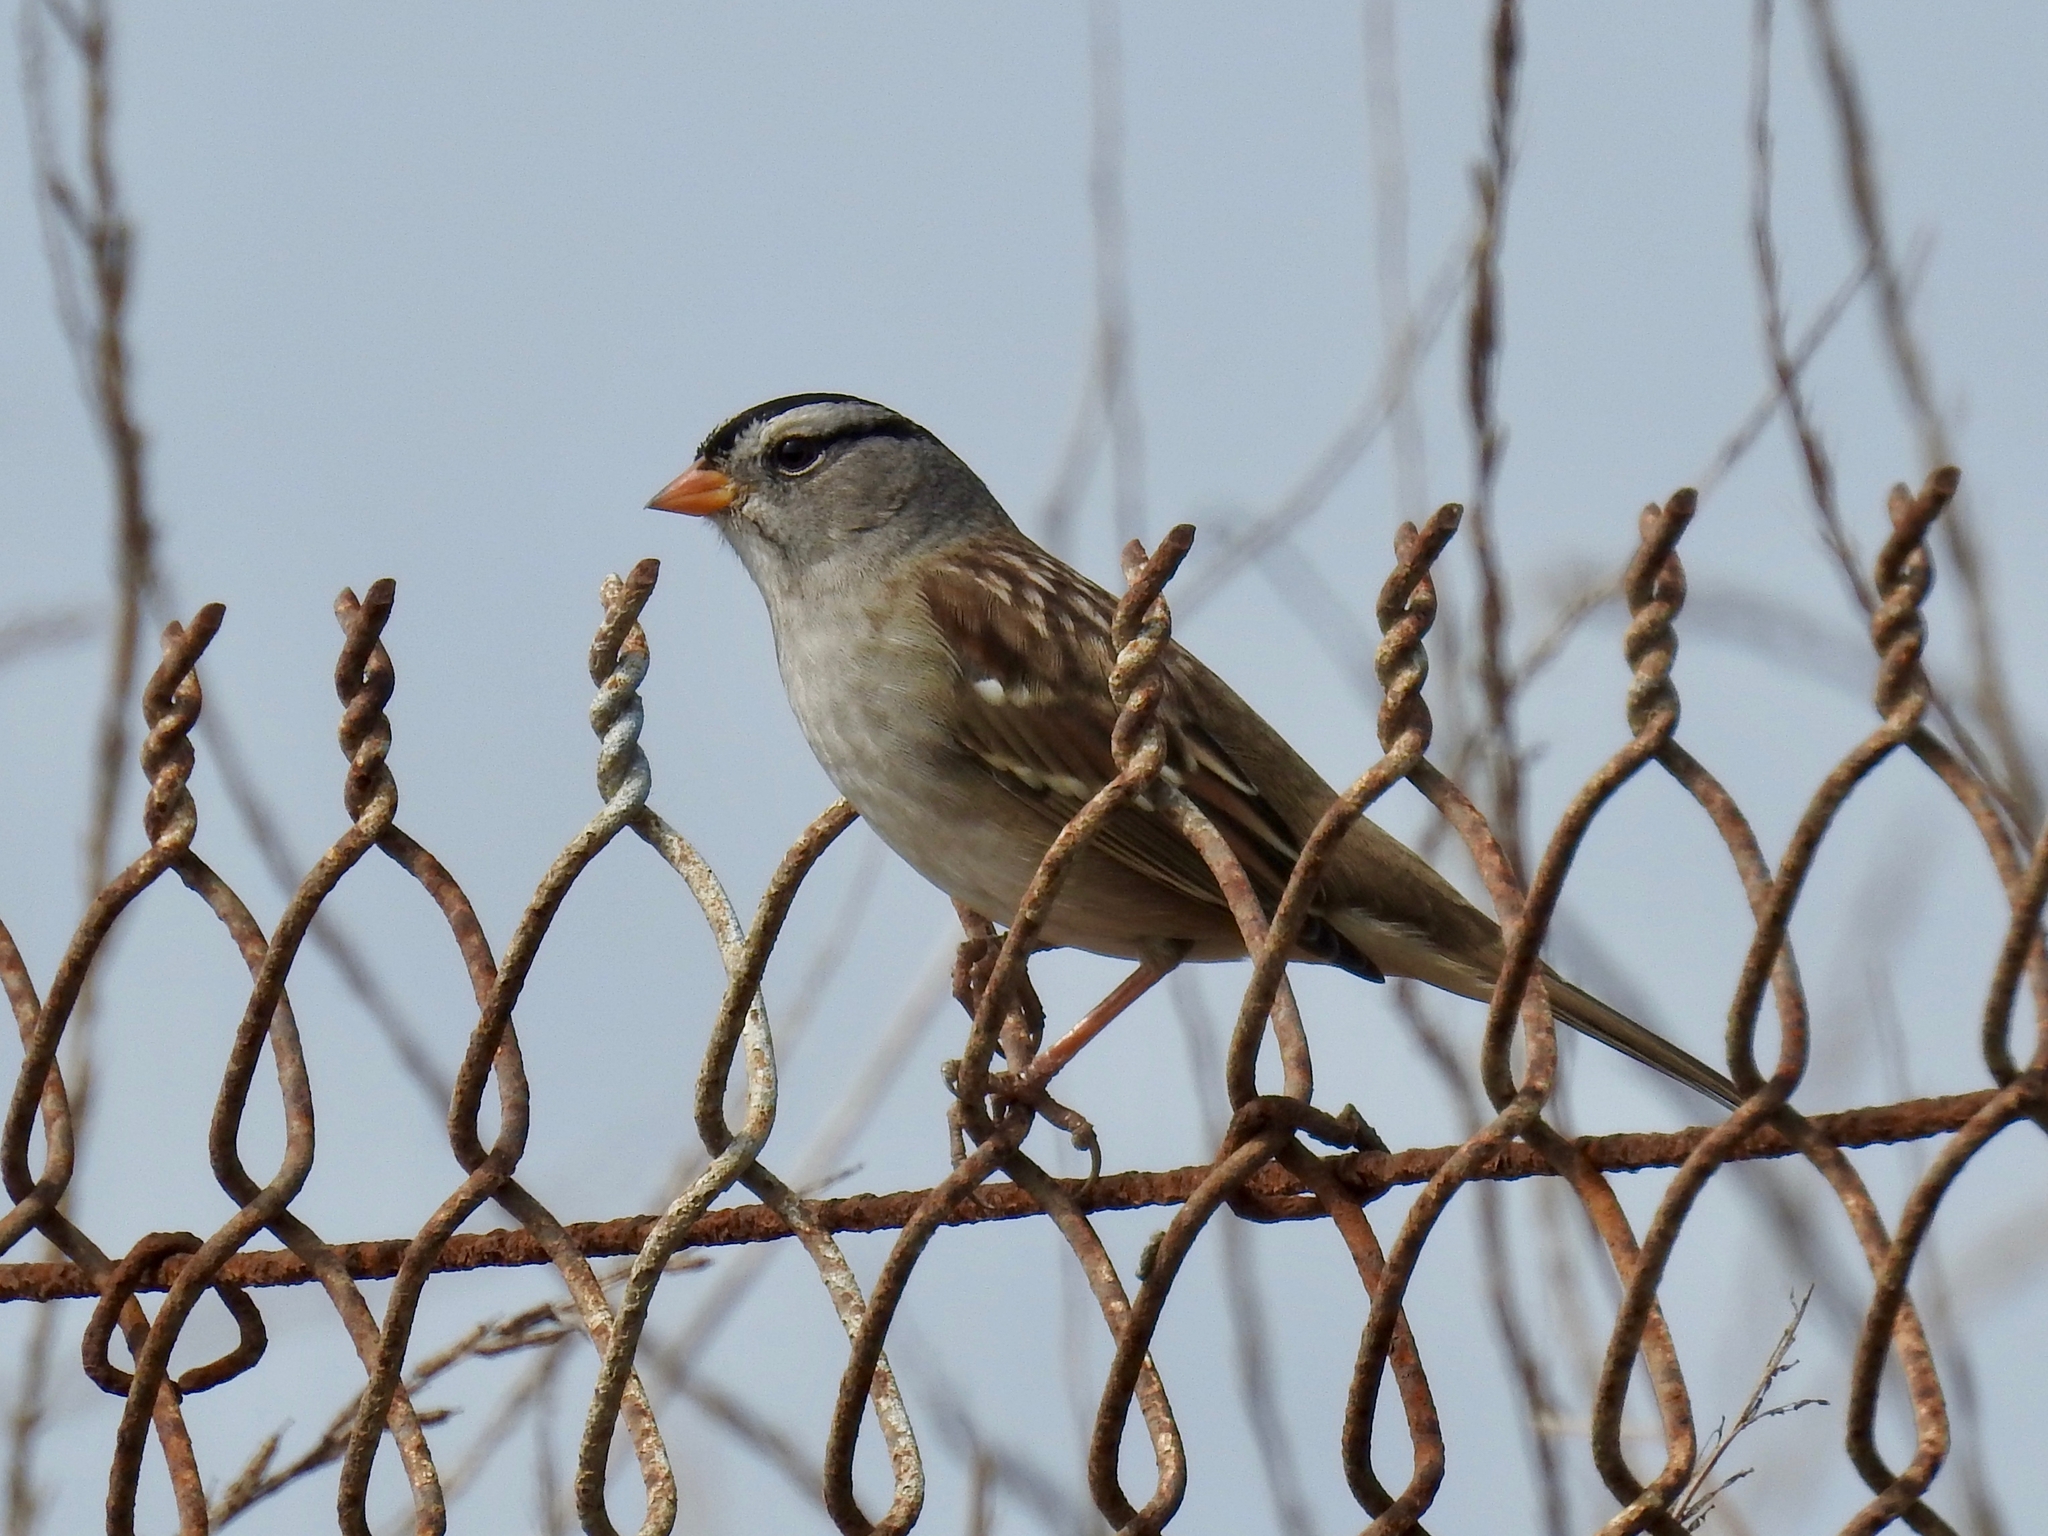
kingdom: Animalia
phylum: Chordata
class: Aves
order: Passeriformes
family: Passerellidae
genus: Zonotrichia
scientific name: Zonotrichia leucophrys
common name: White-crowned sparrow
